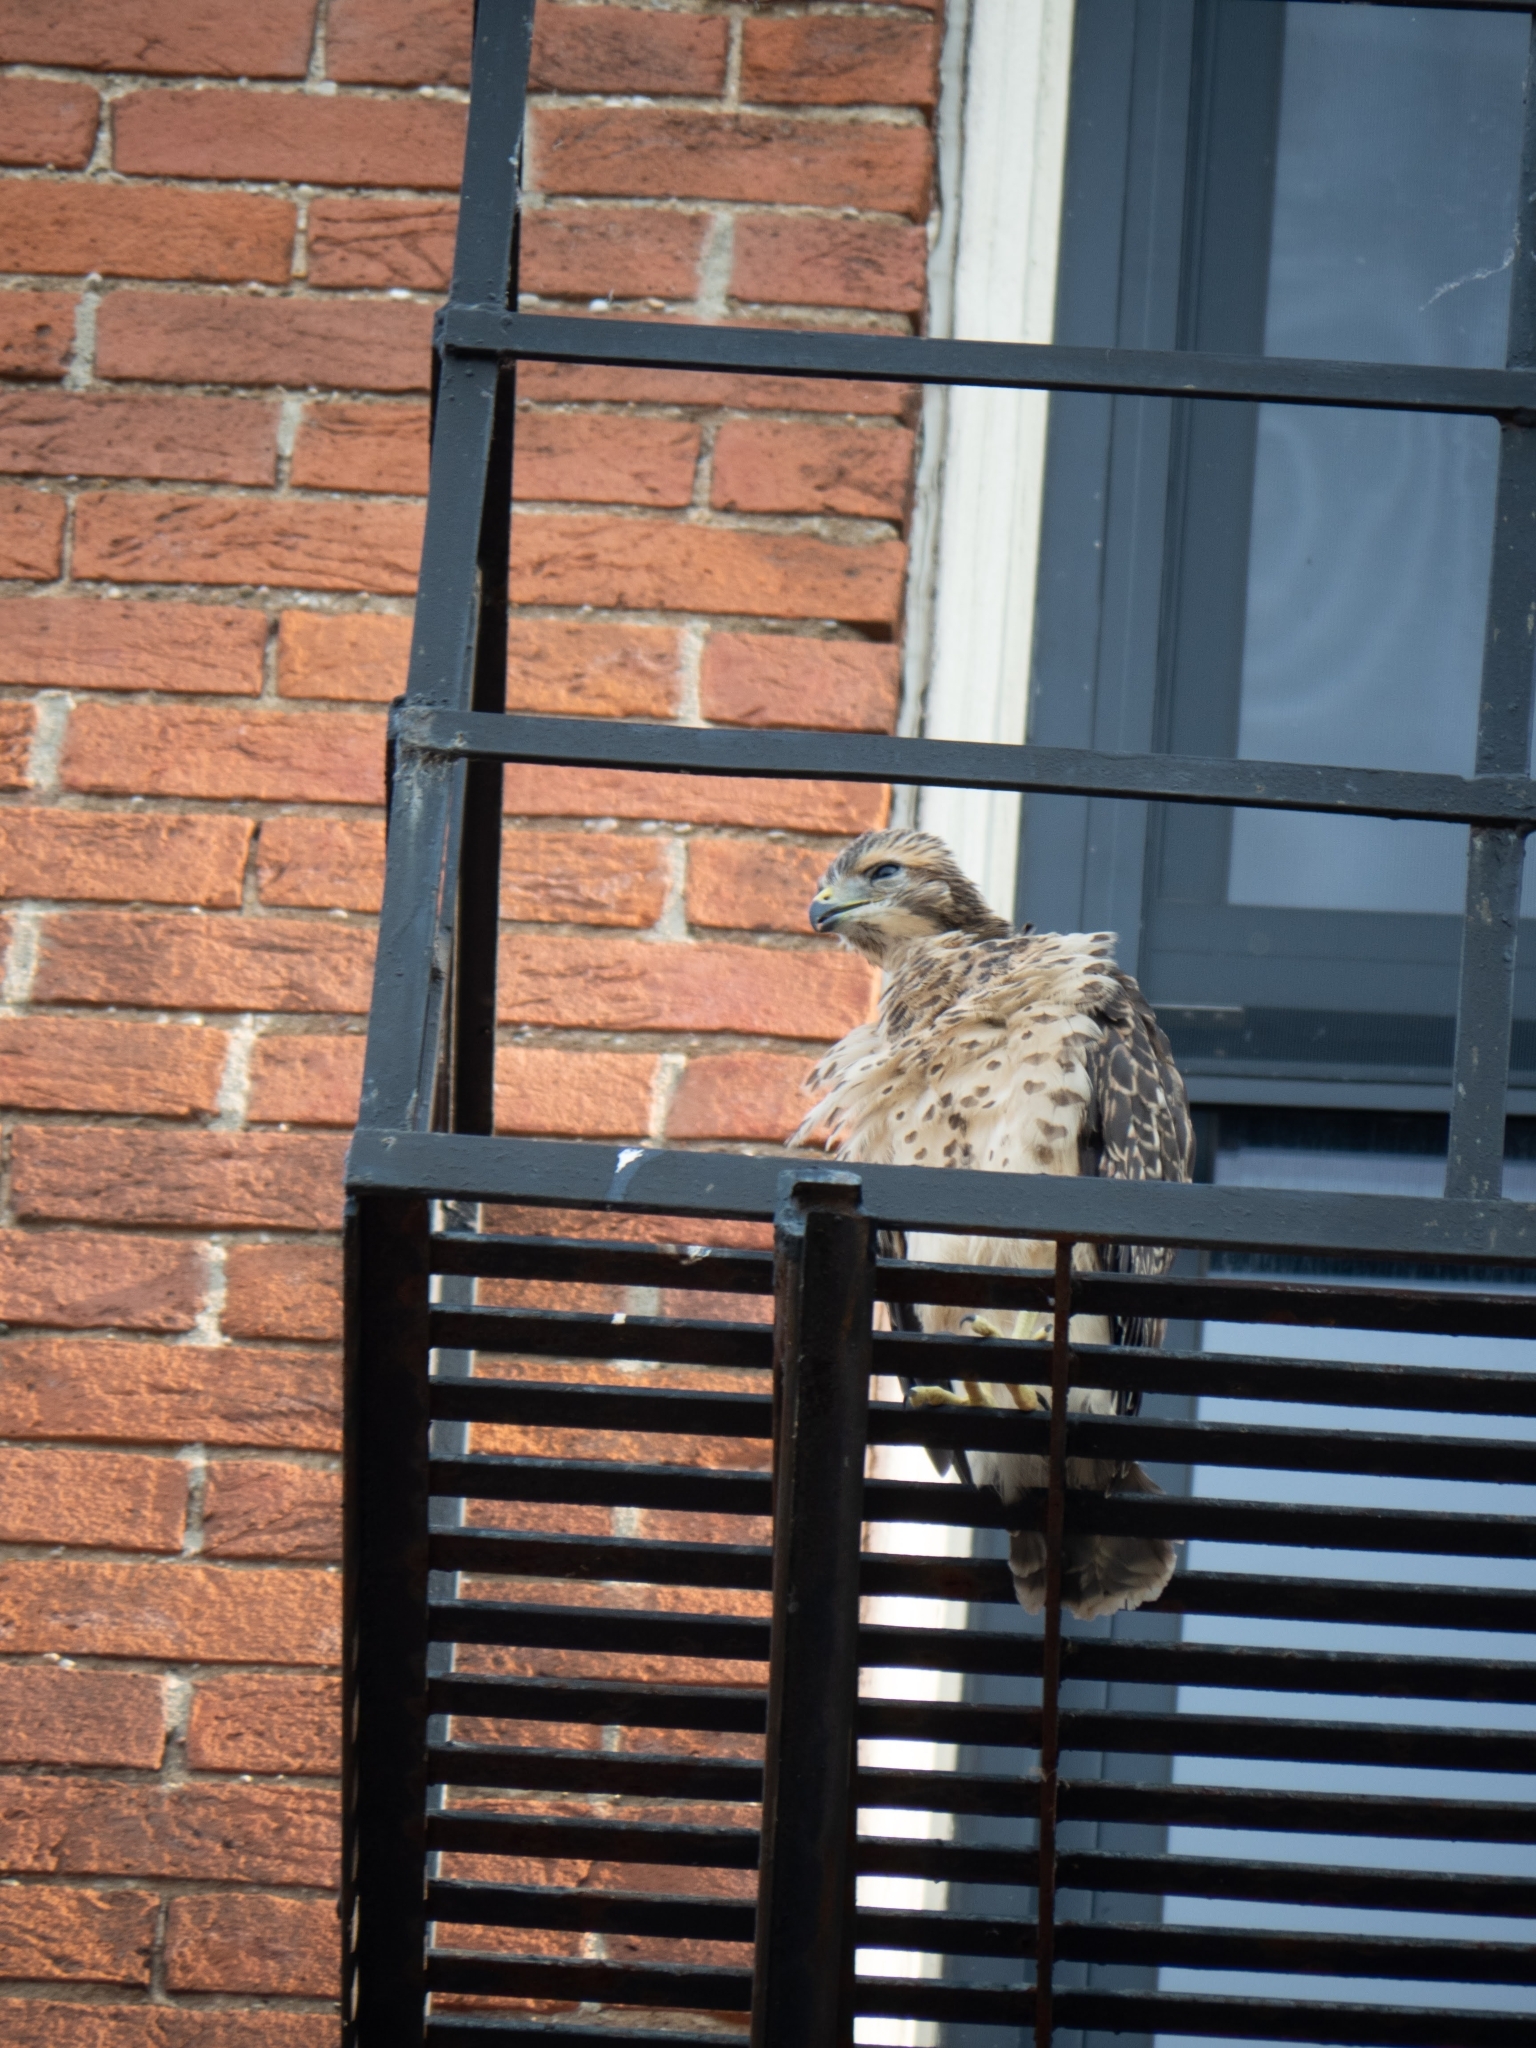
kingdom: Animalia
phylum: Chordata
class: Aves
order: Accipitriformes
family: Accipitridae
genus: Buteo
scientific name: Buteo jamaicensis
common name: Red-tailed hawk
